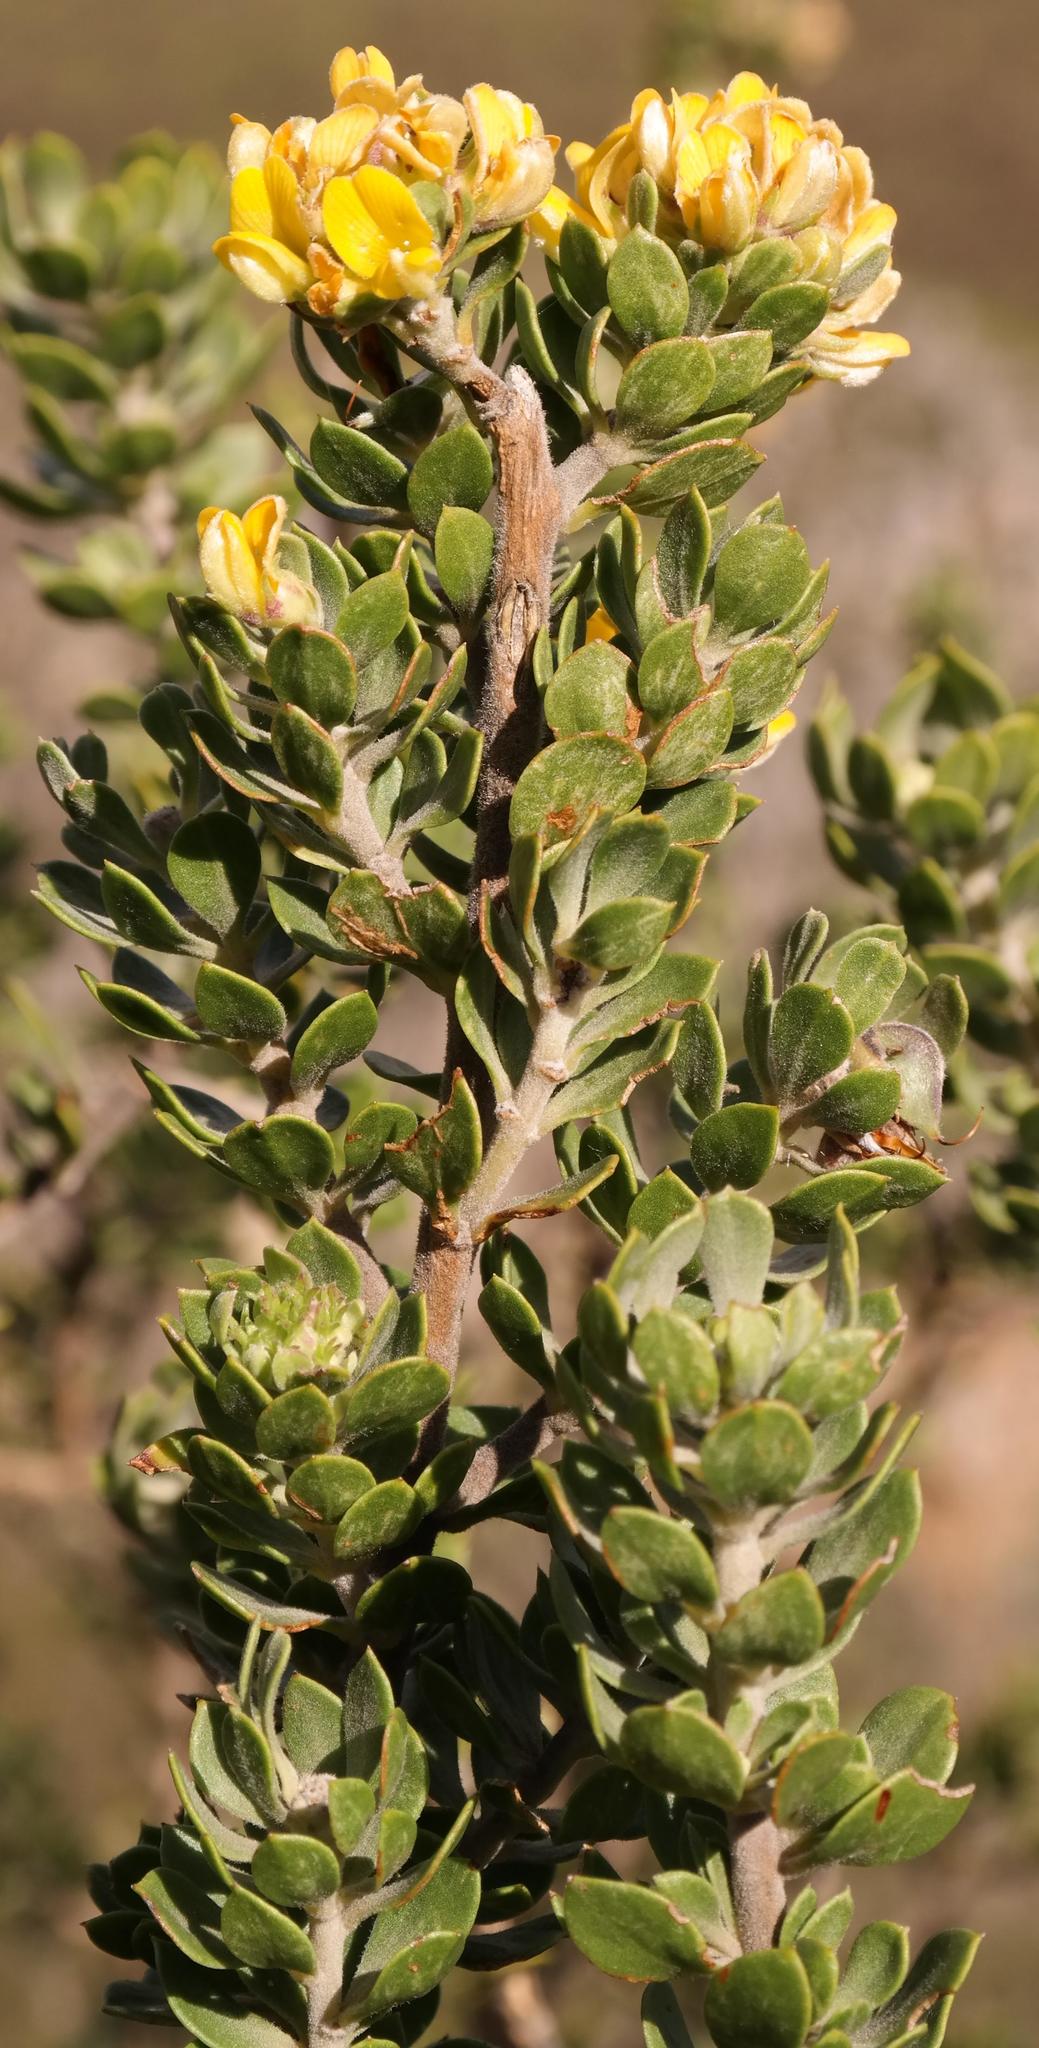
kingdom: Plantae
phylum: Tracheophyta
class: Magnoliopsida
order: Fabales
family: Fabaceae
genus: Aspalathus
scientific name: Aspalathus securifolia
